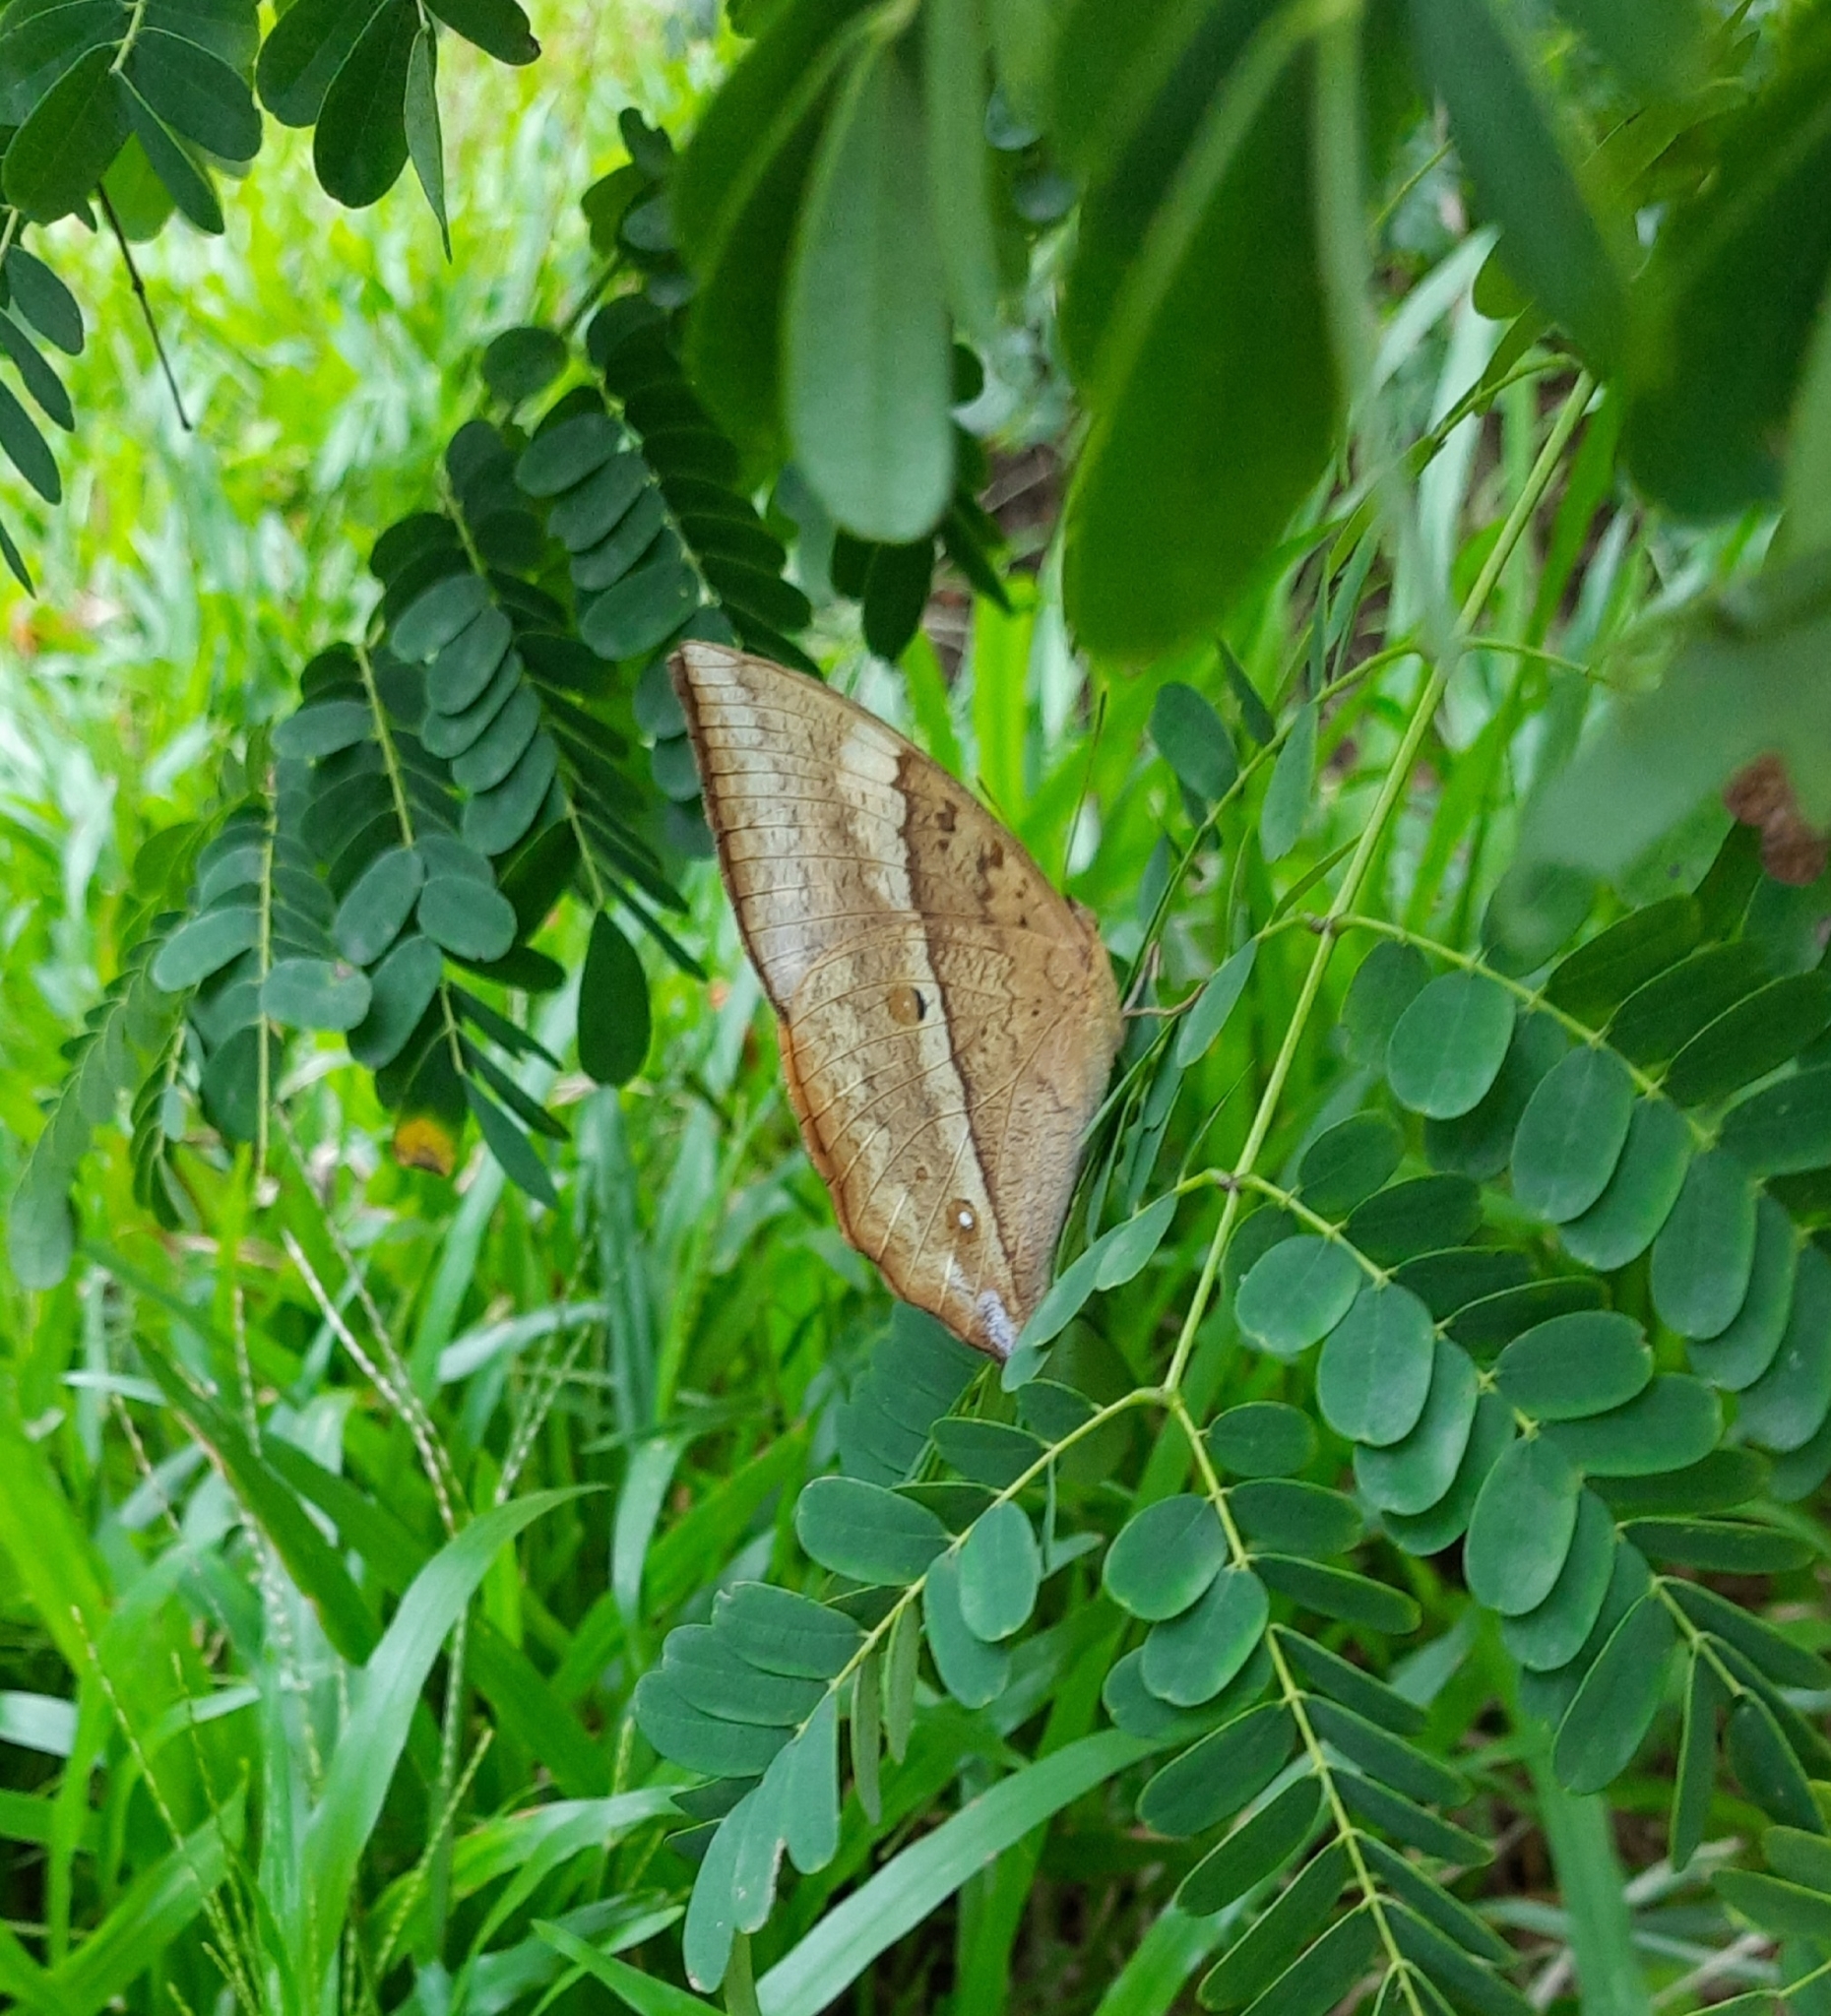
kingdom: Animalia
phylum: Arthropoda
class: Insecta
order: Lepidoptera
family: Nymphalidae
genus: Discophora
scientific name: Discophora lepida
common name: Southern duffer
